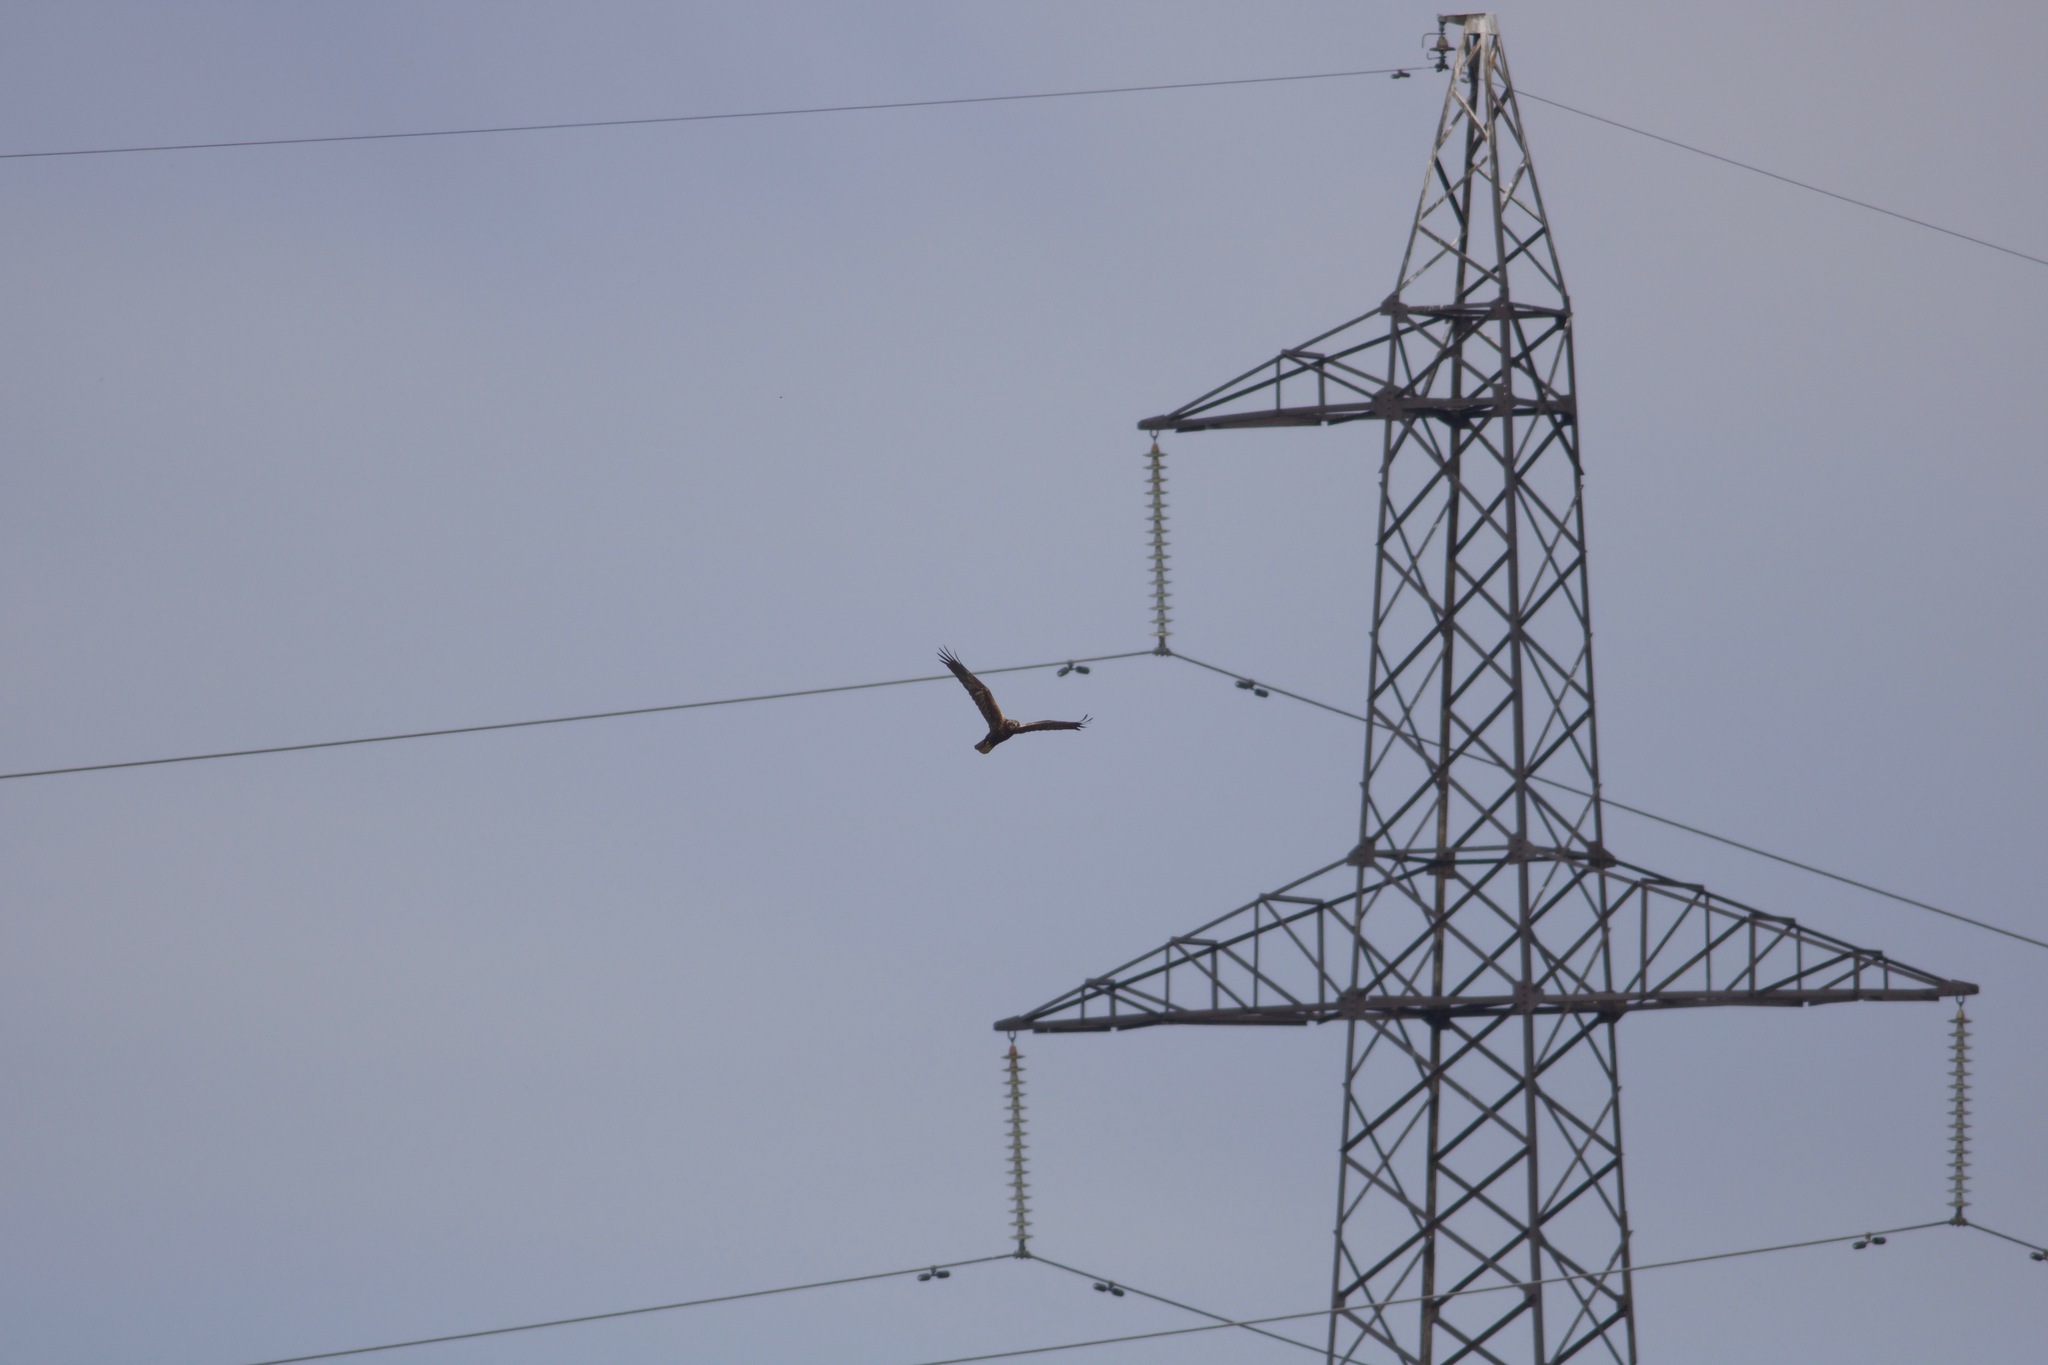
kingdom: Animalia
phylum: Chordata
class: Aves
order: Accipitriformes
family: Accipitridae
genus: Circus
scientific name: Circus aeruginosus
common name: Western marsh harrier
